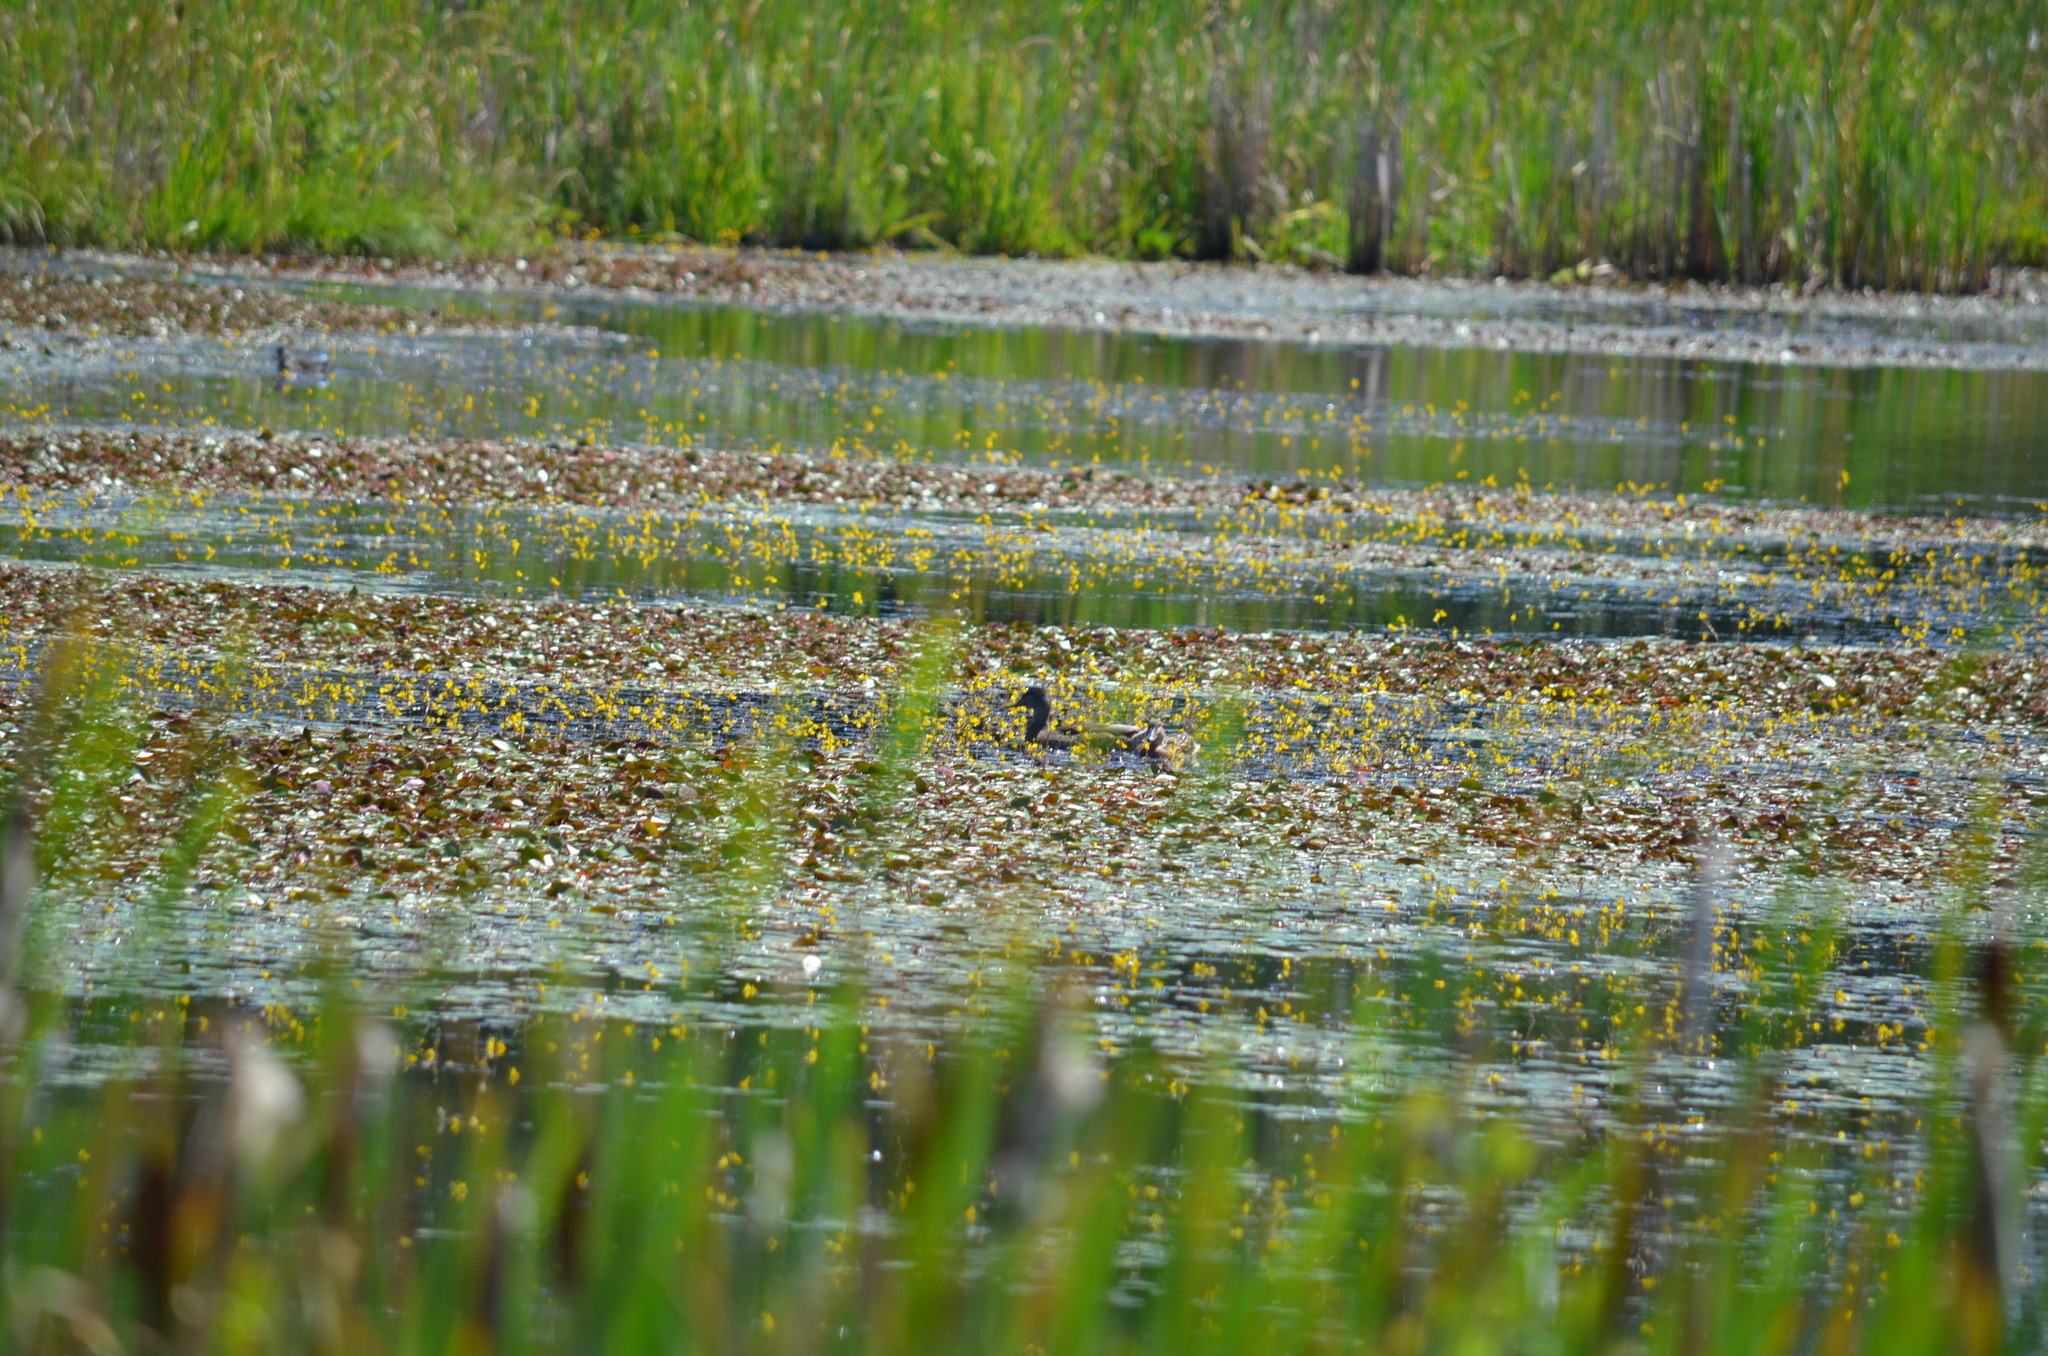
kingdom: Animalia
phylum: Chordata
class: Aves
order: Anseriformes
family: Anatidae
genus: Anas
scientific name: Anas platyrhynchos
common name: Mallard
